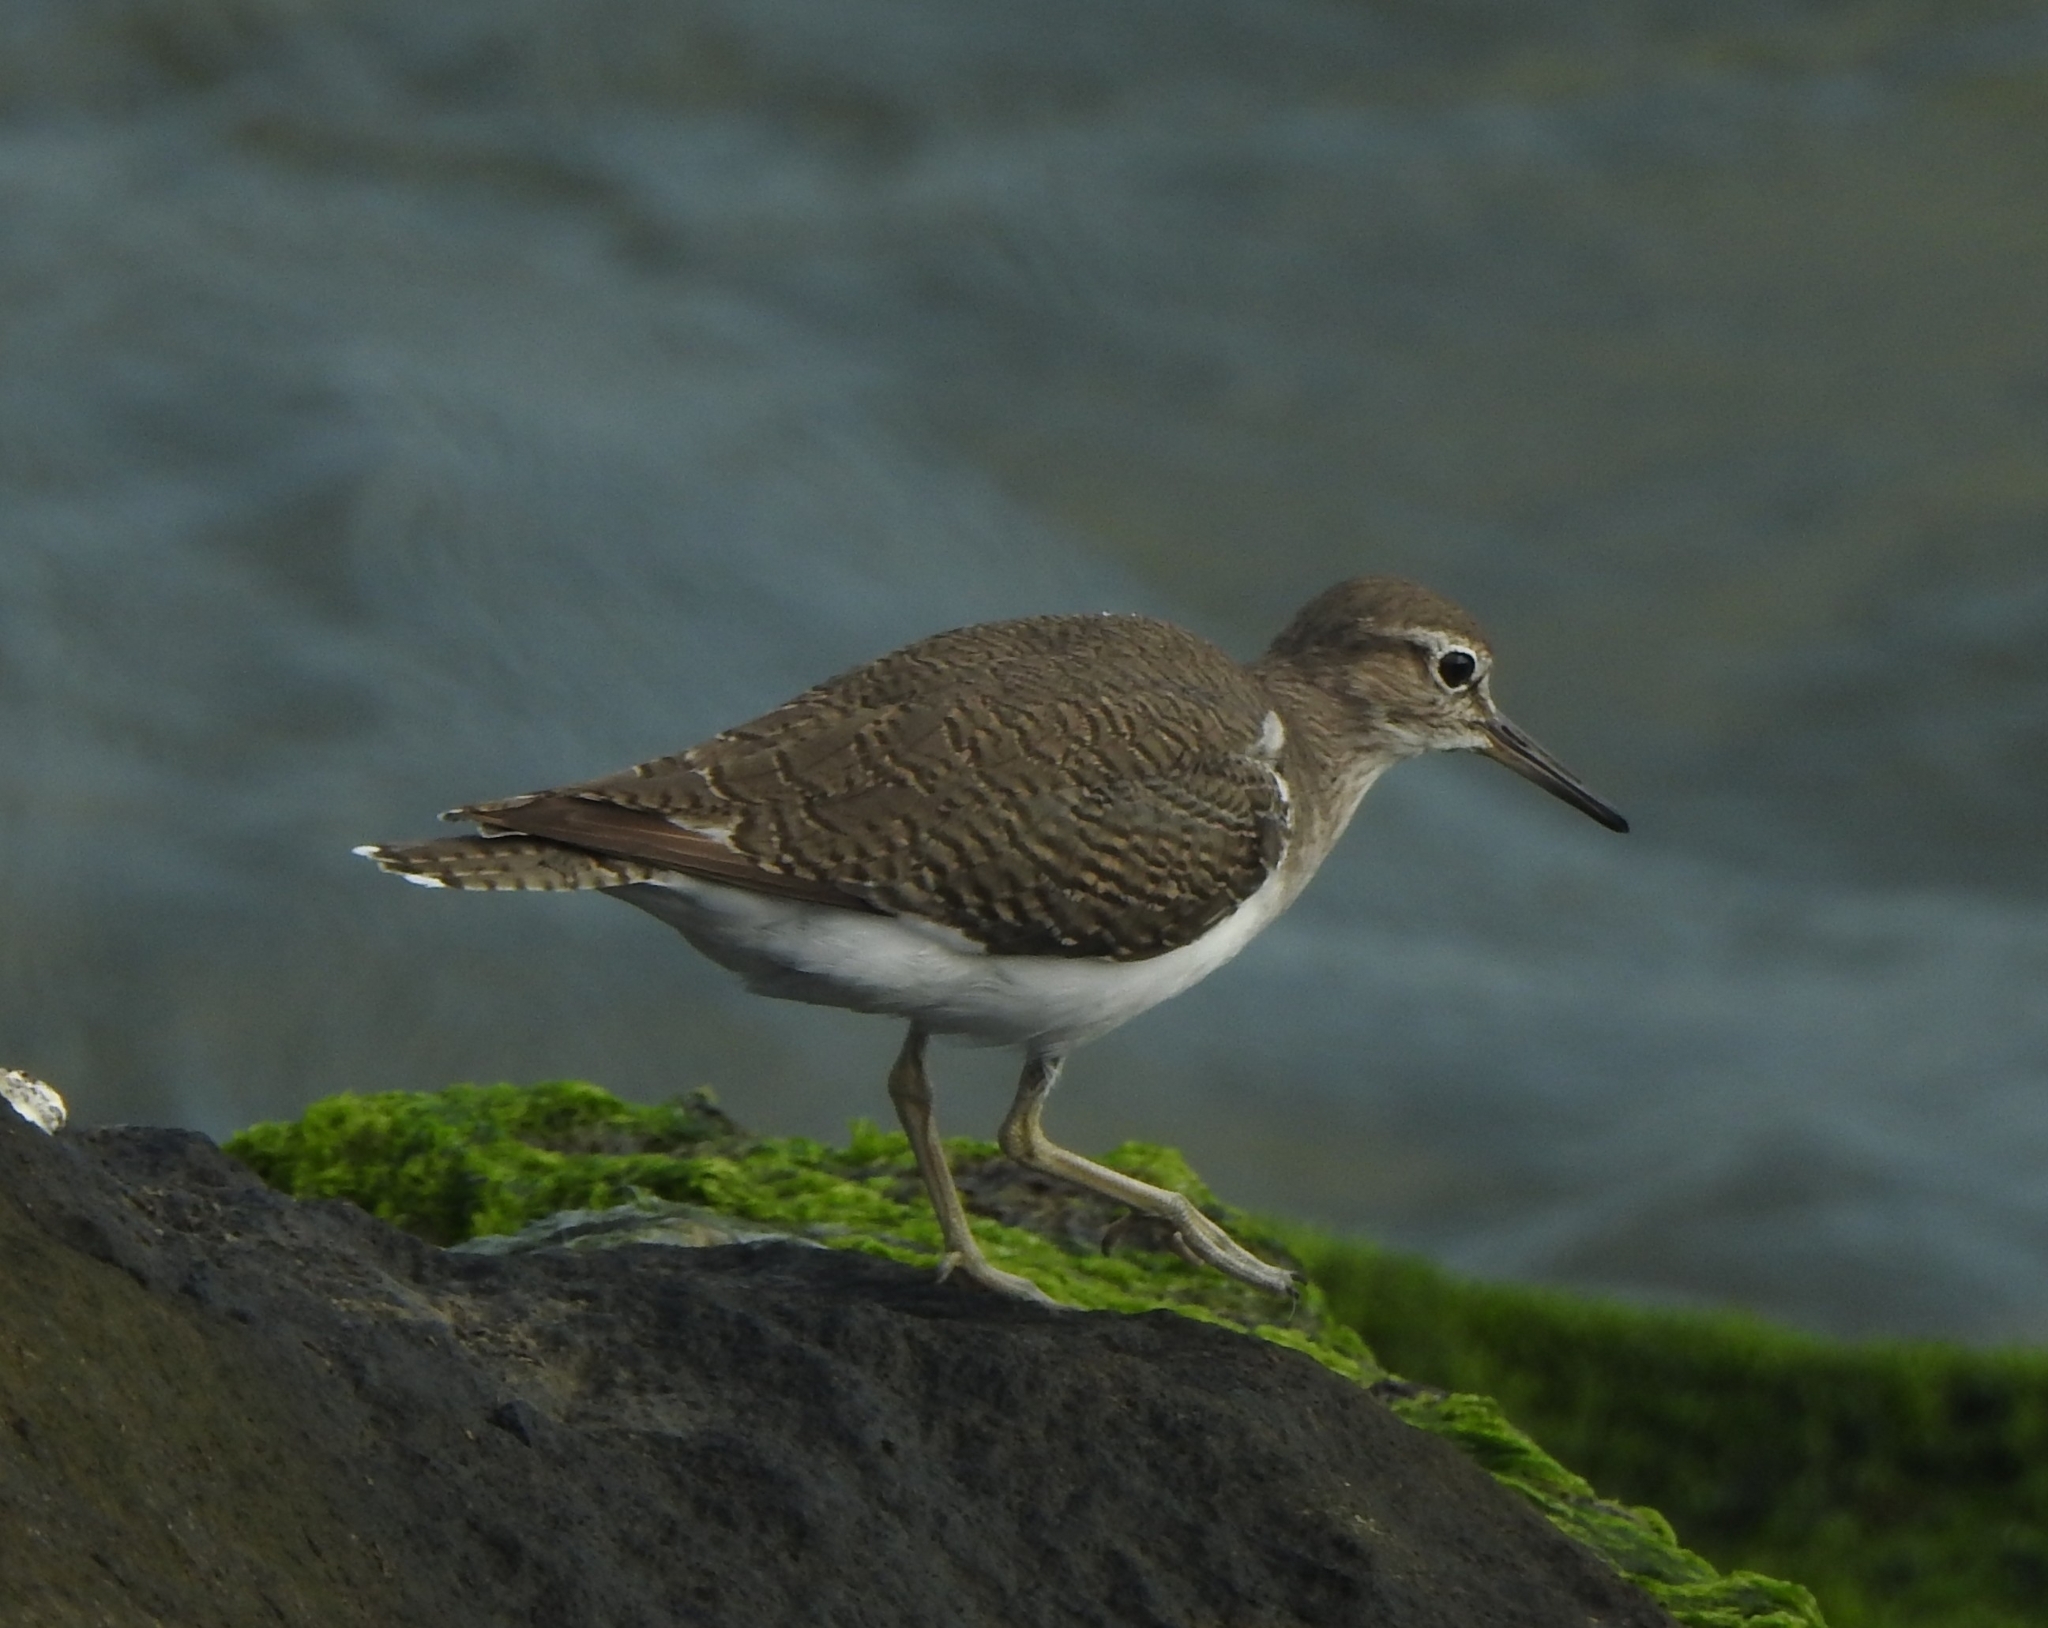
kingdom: Animalia
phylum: Chordata
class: Aves
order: Charadriiformes
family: Scolopacidae
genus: Actitis
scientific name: Actitis hypoleucos
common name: Common sandpiper
